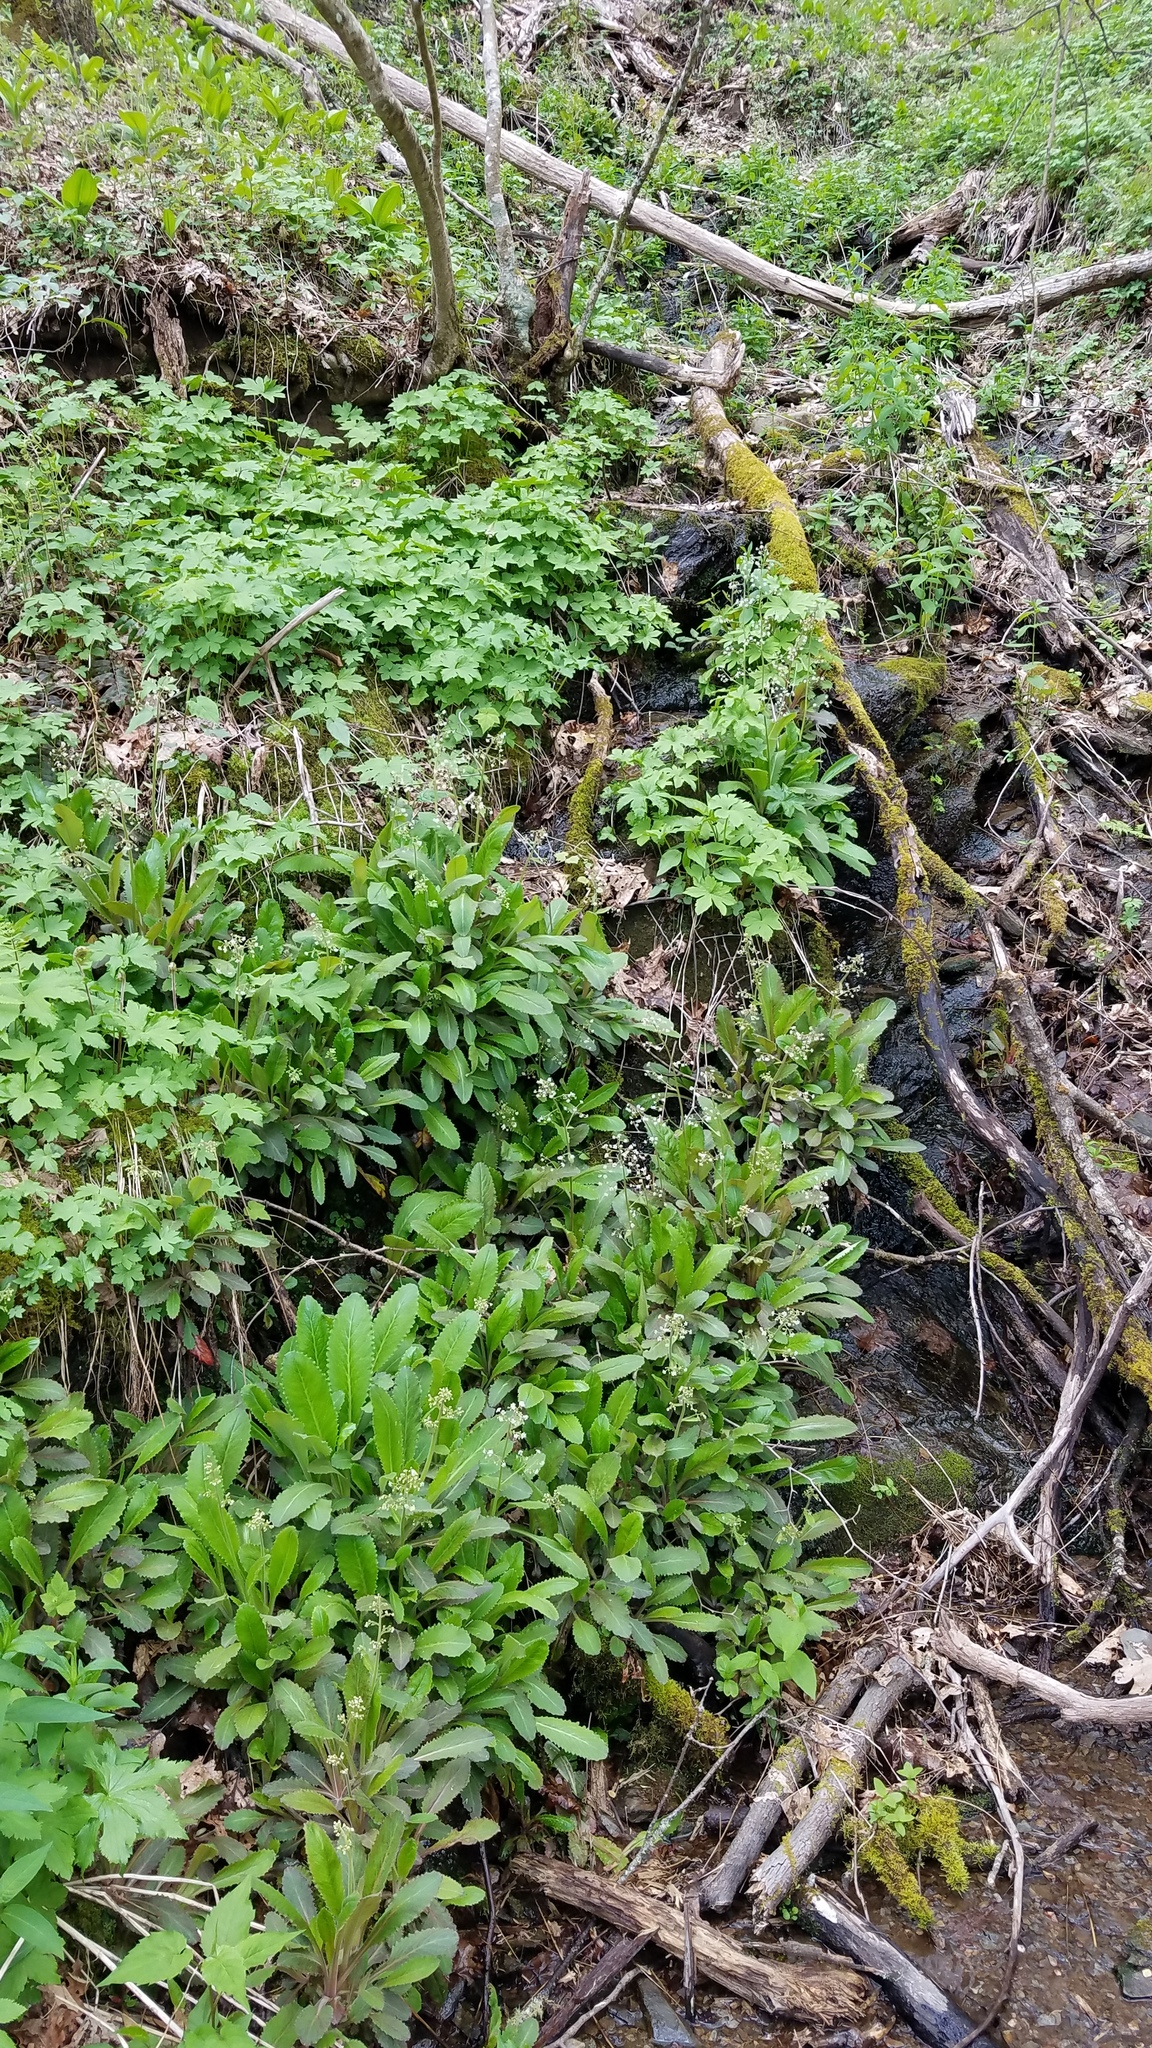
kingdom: Plantae
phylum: Tracheophyta
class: Magnoliopsida
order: Saxifragales
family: Saxifragaceae
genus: Micranthes
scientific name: Micranthes micranthidifolia
